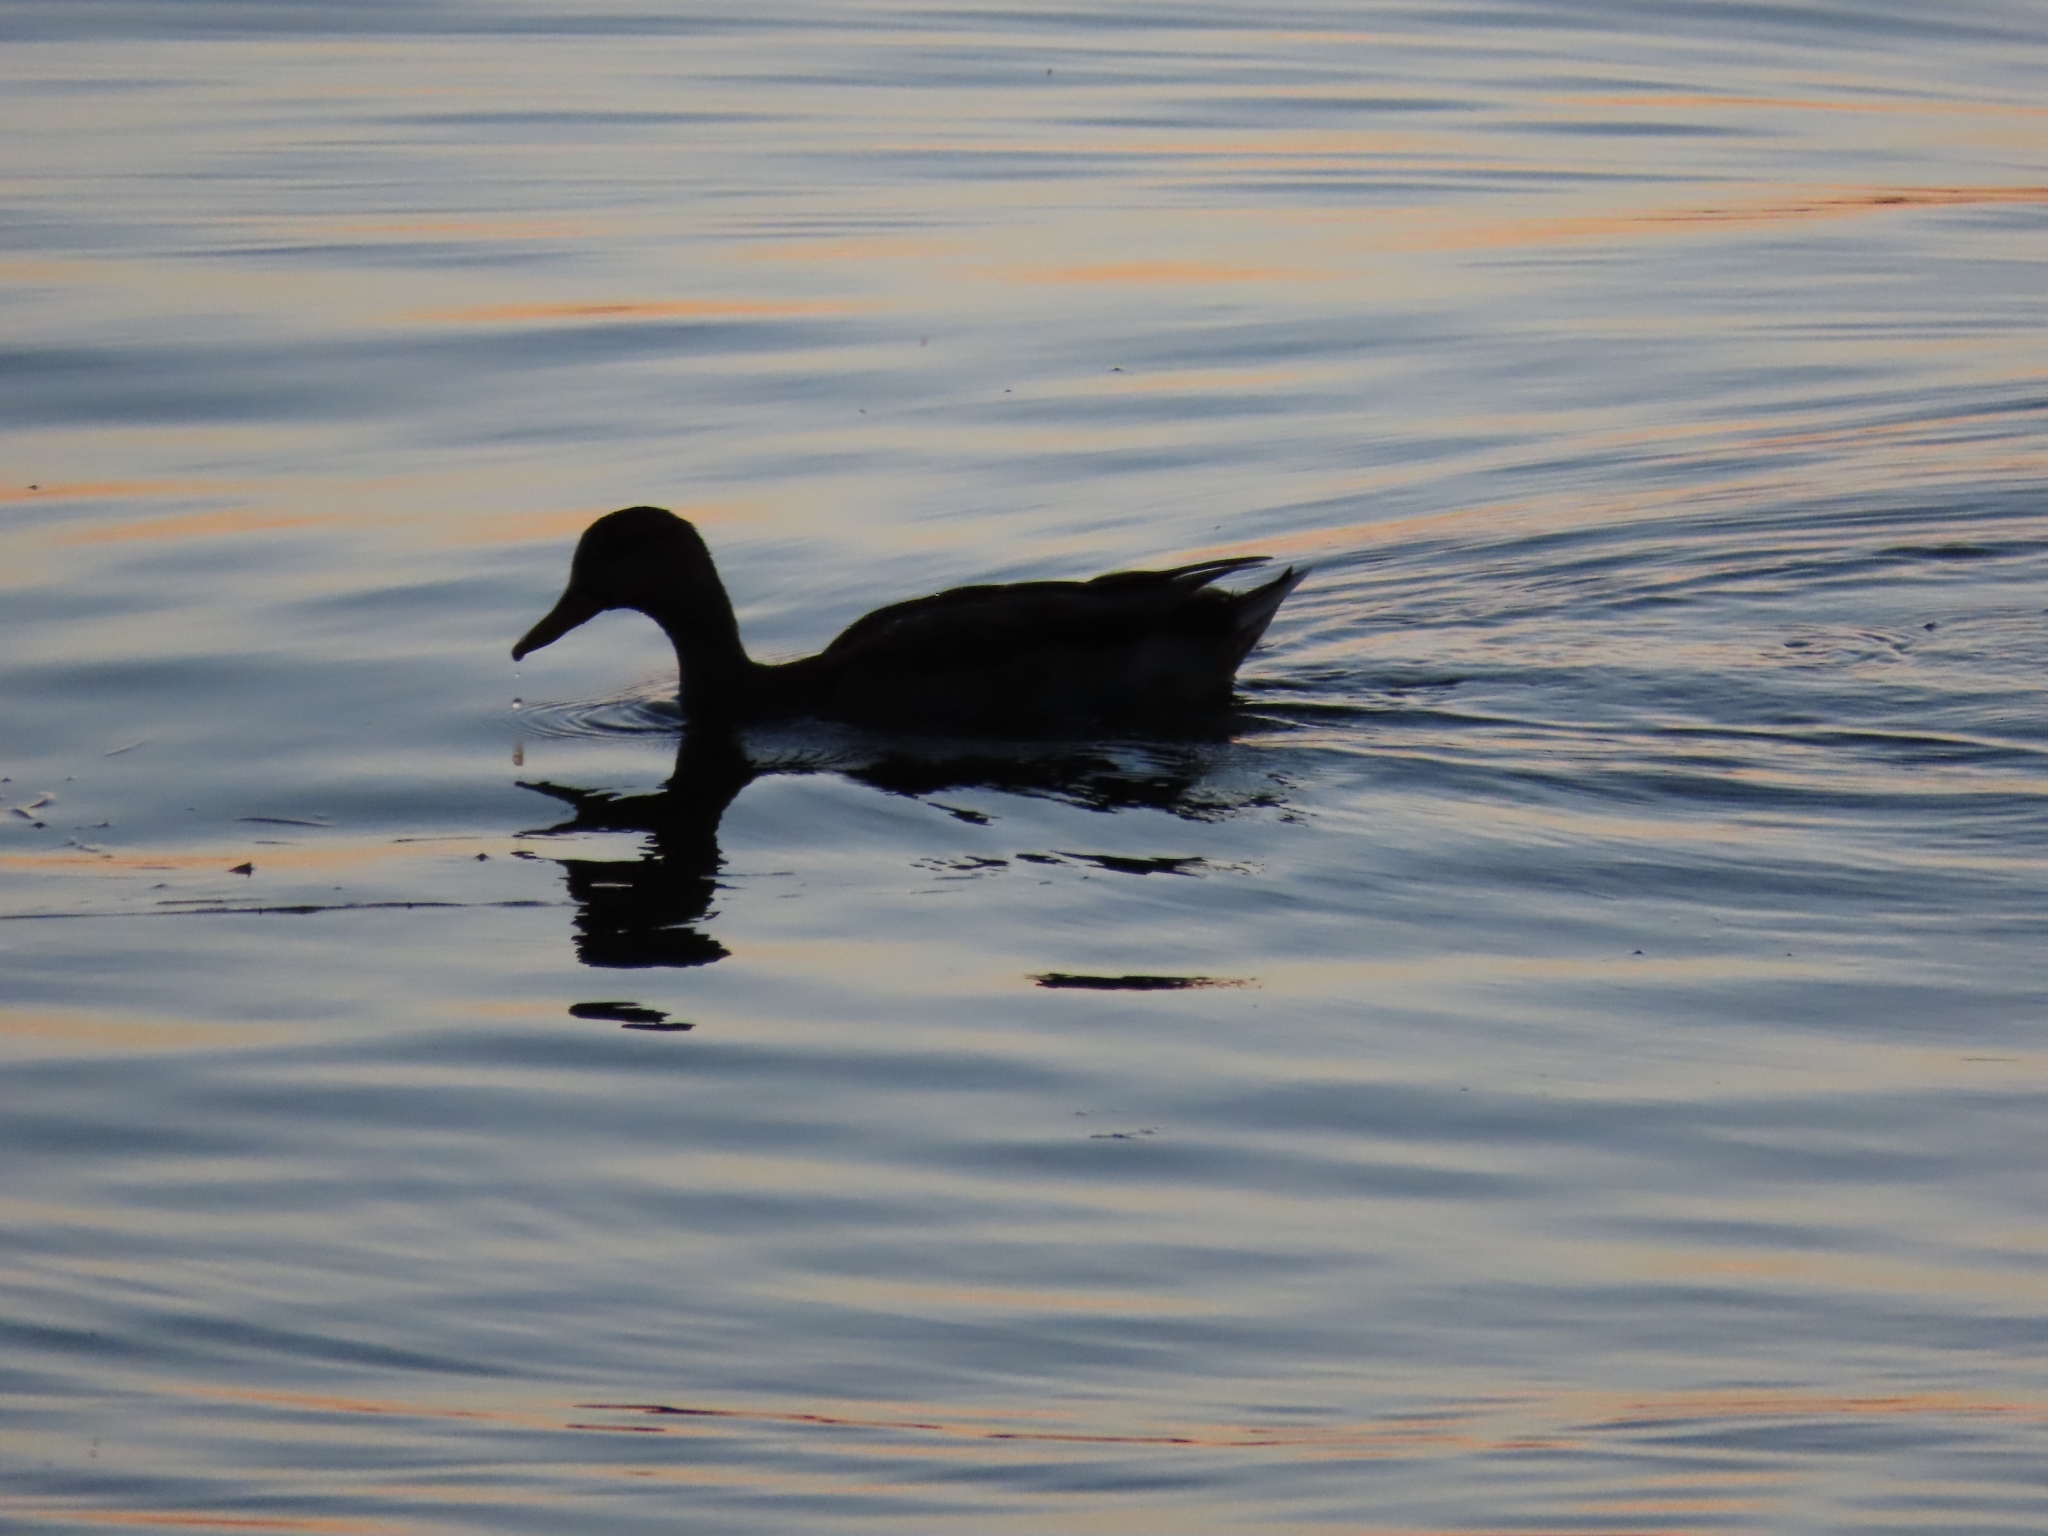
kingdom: Animalia
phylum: Chordata
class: Aves
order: Anseriformes
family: Anatidae
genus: Anas
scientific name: Anas platyrhynchos
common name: Mallard
